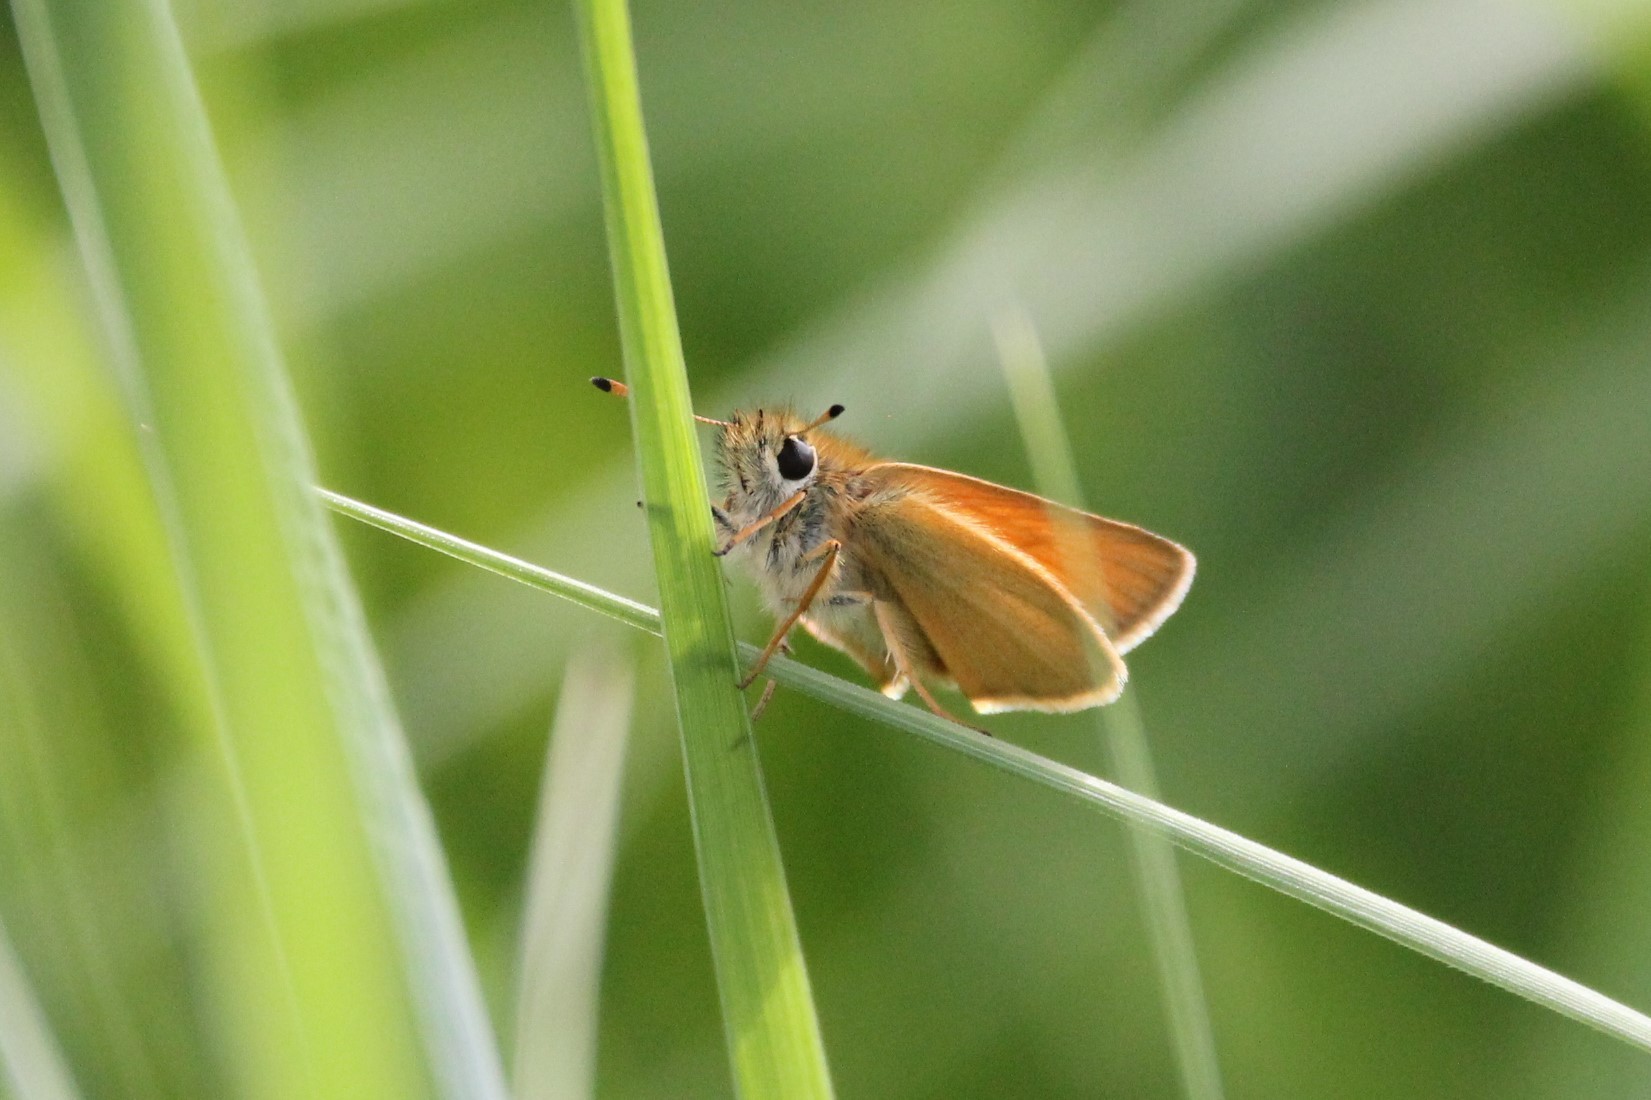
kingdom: Animalia
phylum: Arthropoda
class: Insecta
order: Lepidoptera
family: Hesperiidae
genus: Thymelicus
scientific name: Thymelicus lineola
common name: Essex skipper
